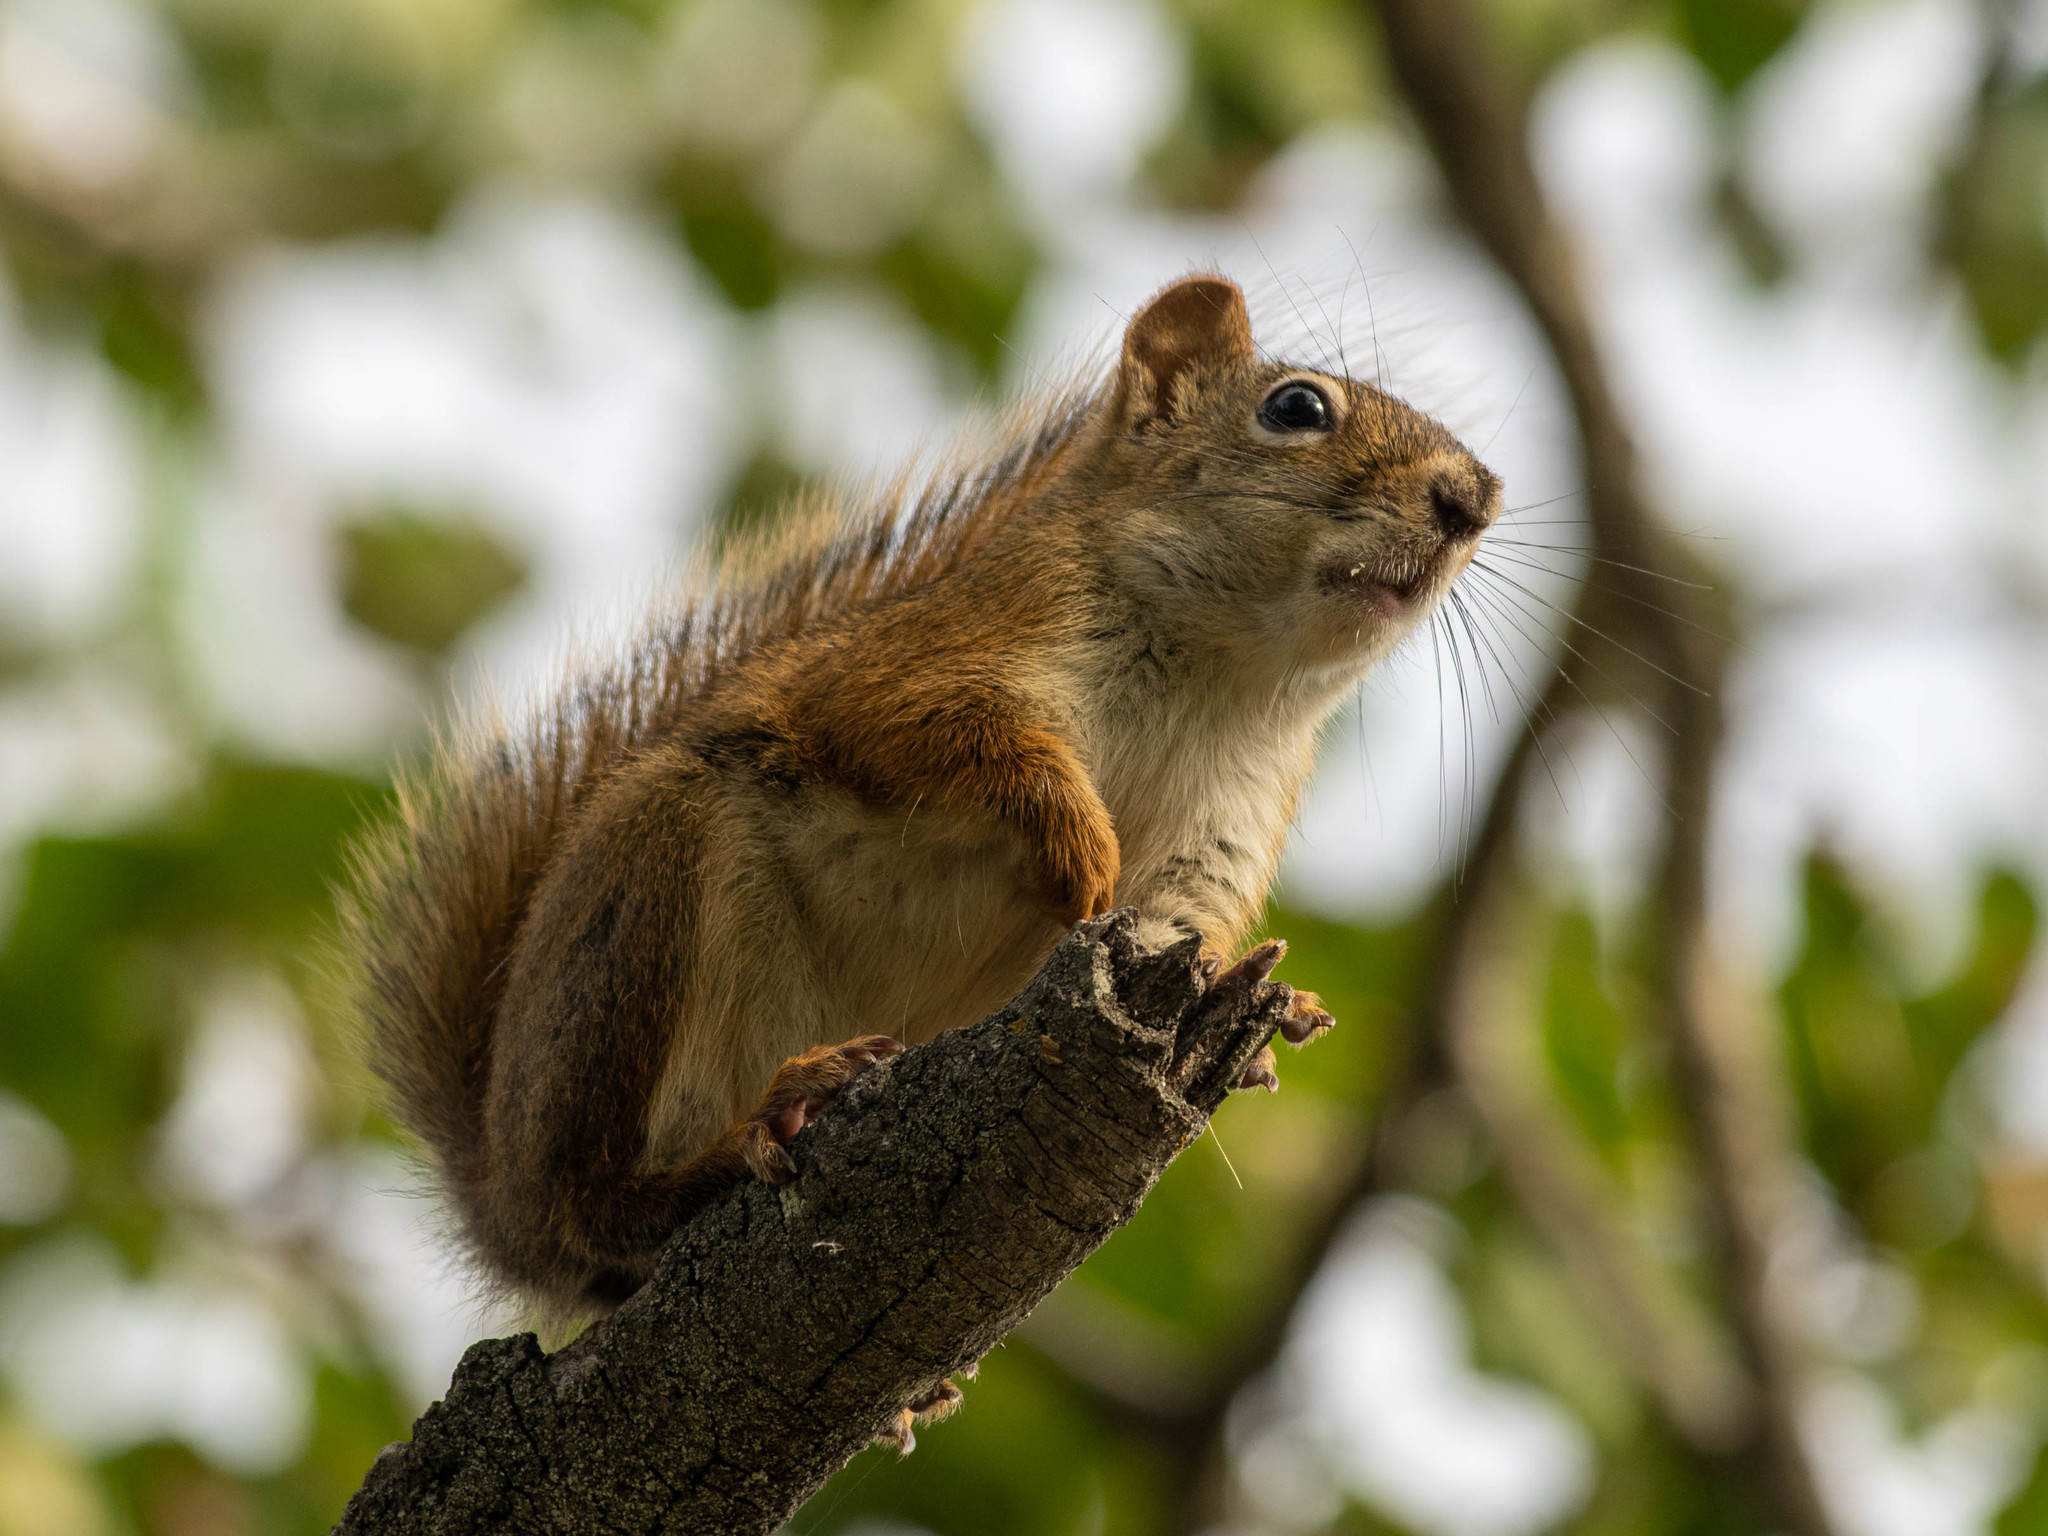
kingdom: Animalia
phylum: Chordata
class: Mammalia
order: Rodentia
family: Sciuridae
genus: Tamiasciurus
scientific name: Tamiasciurus hudsonicus
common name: Red squirrel
